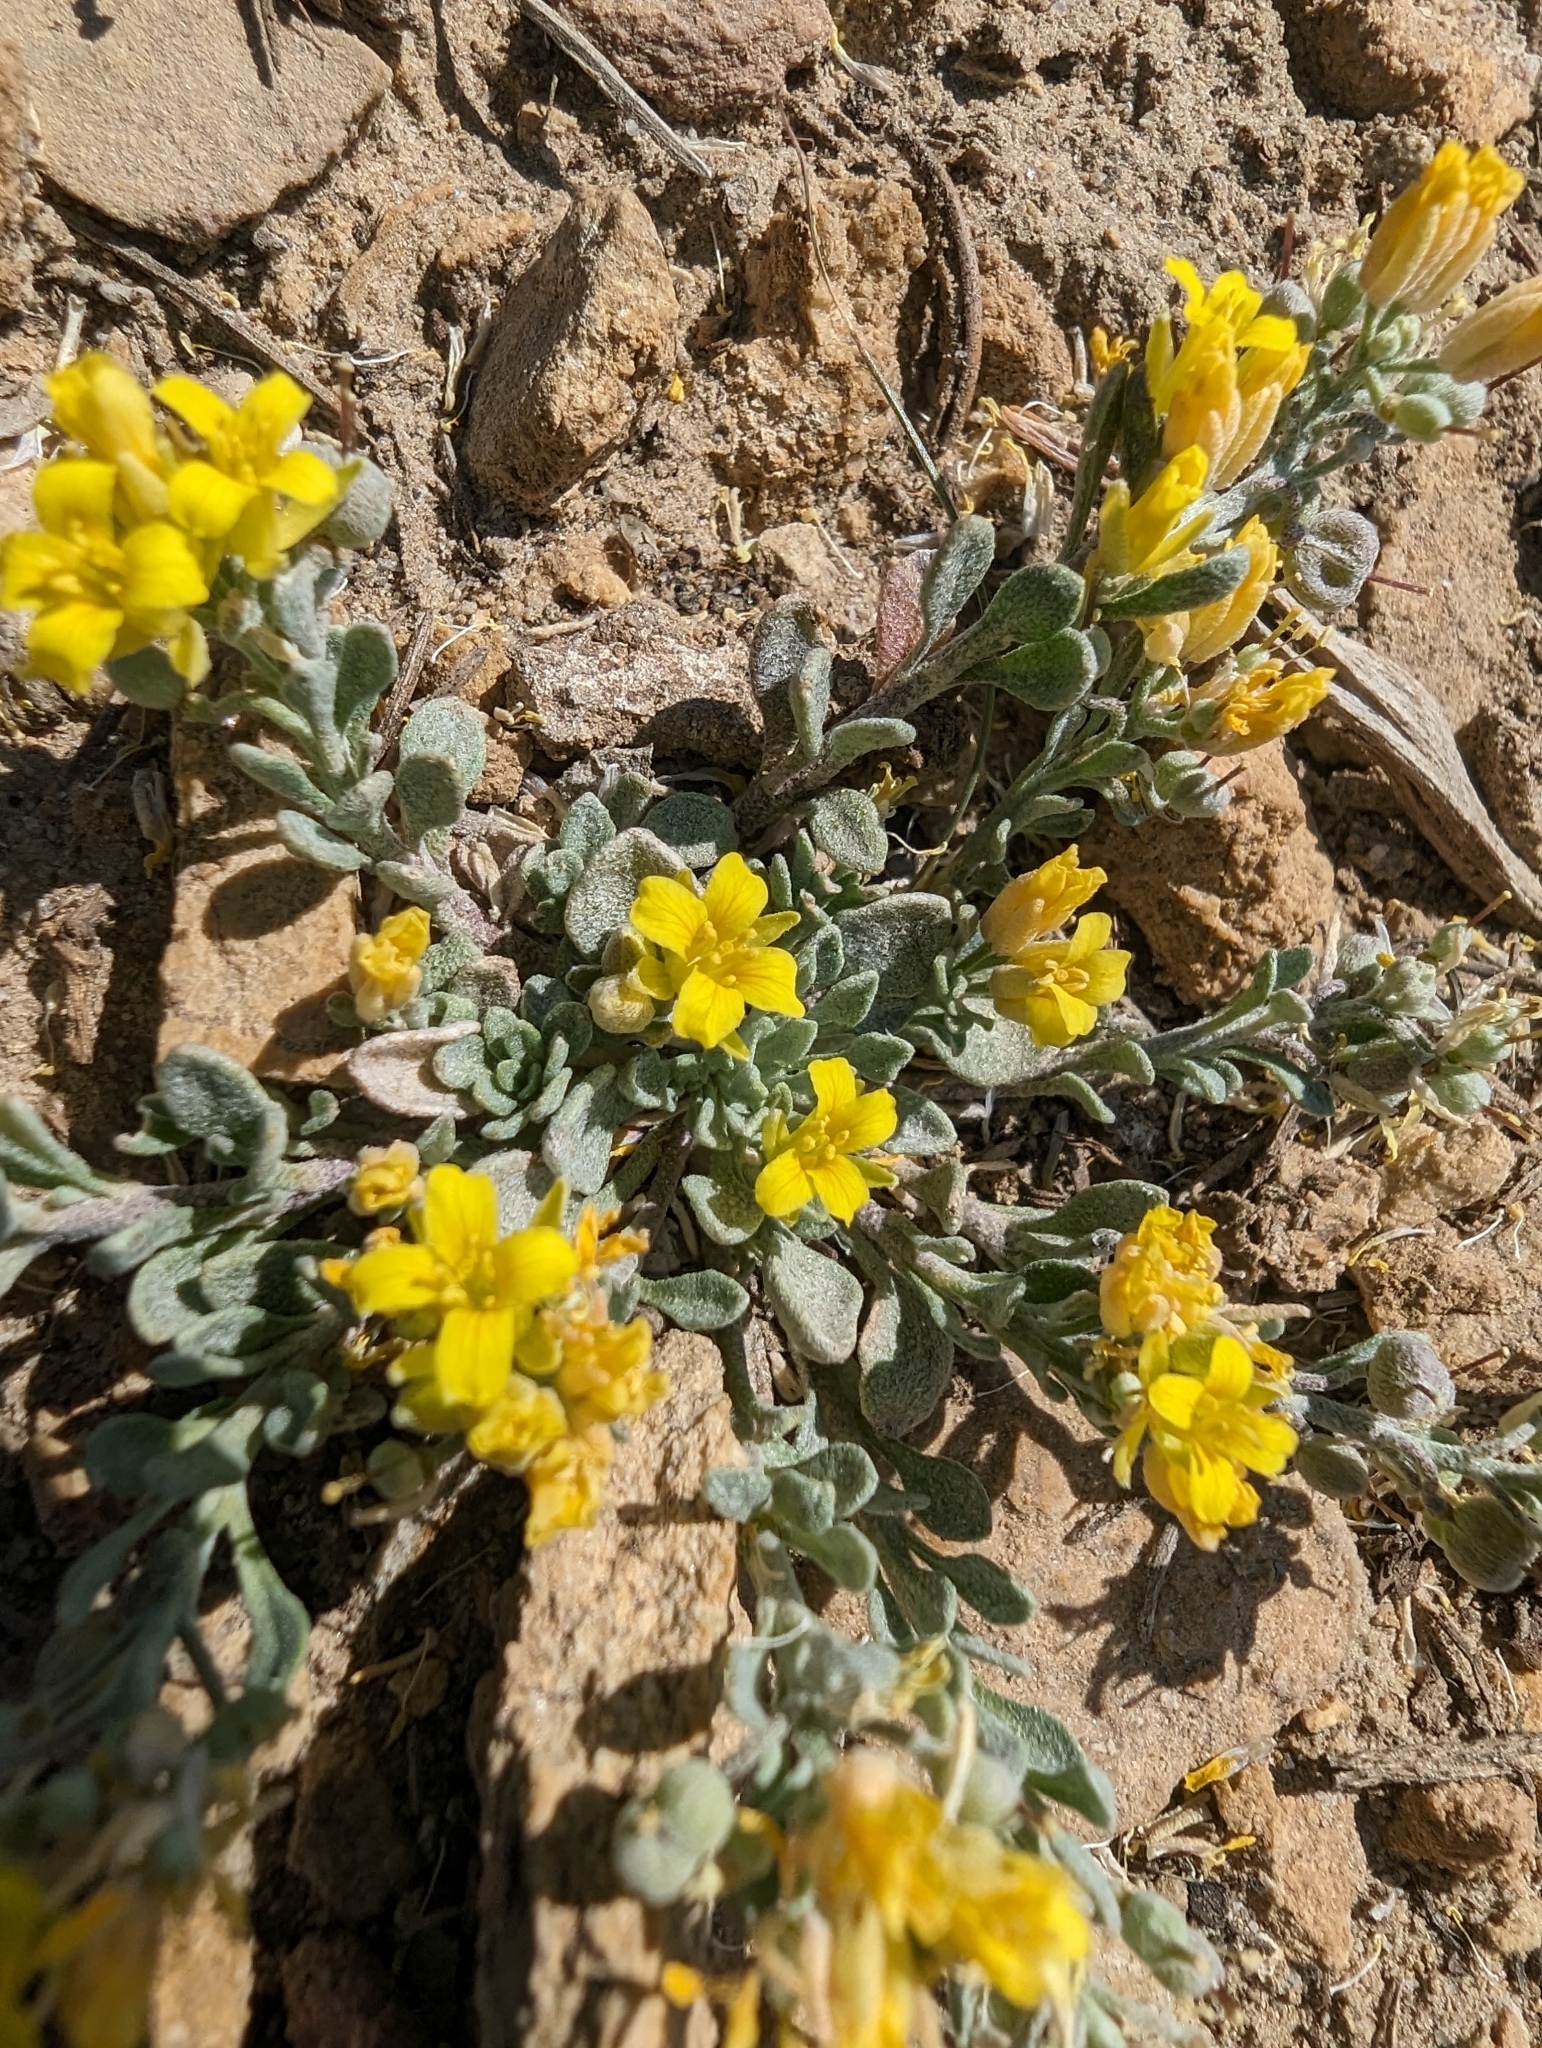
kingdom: Plantae
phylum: Tracheophyta
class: Magnoliopsida
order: Brassicales
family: Brassicaceae
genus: Physaria
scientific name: Physaria kingii
